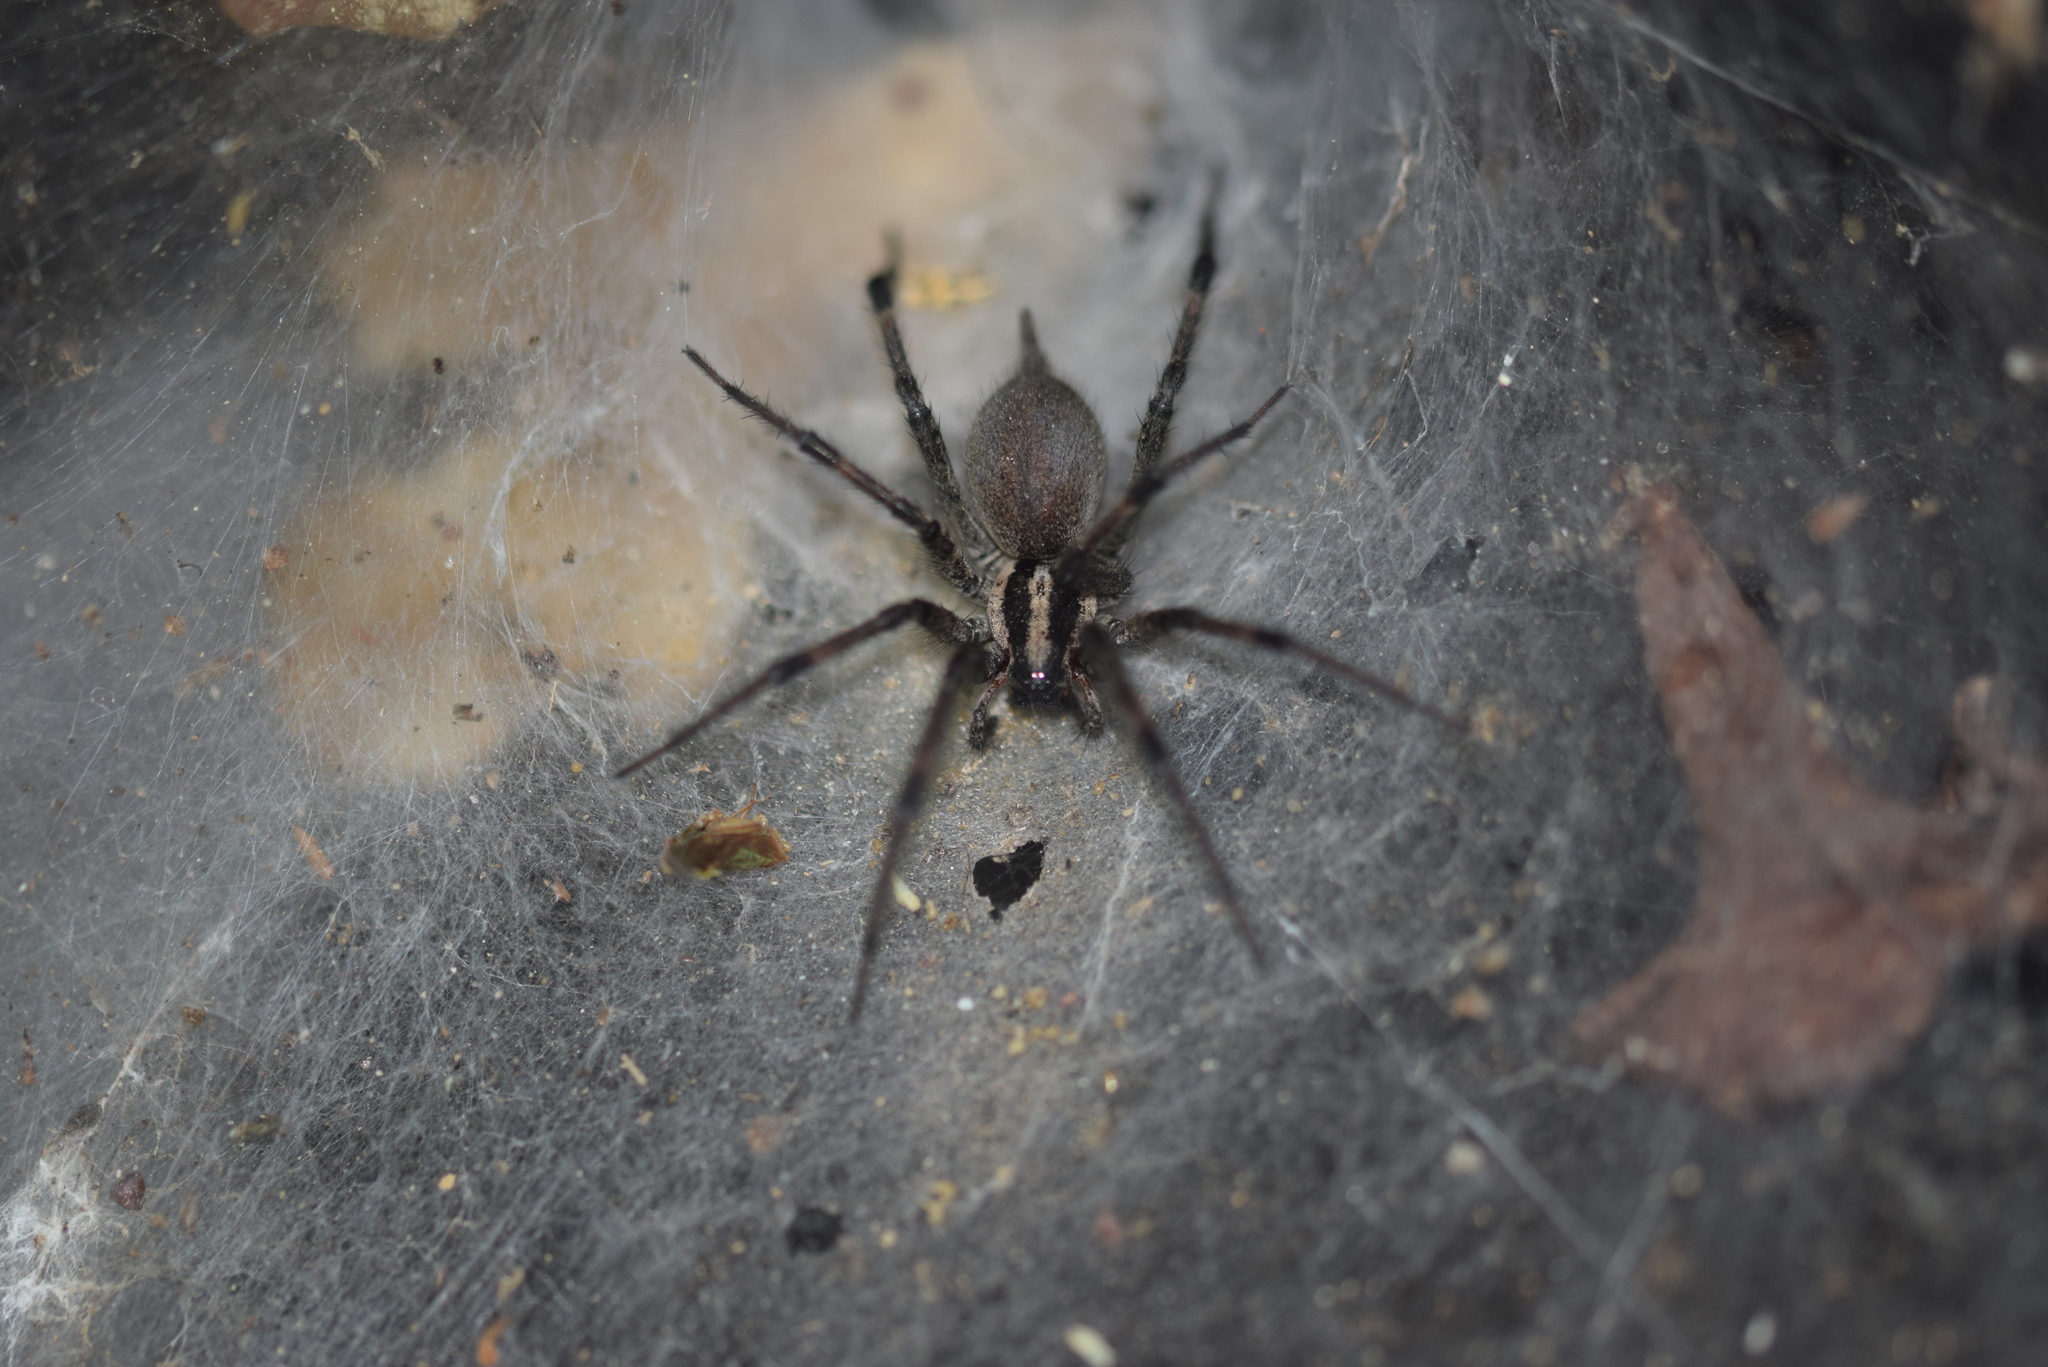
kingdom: Animalia
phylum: Arthropoda
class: Arachnida
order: Araneae
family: Agelenidae
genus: Agelenopsis
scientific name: Agelenopsis
